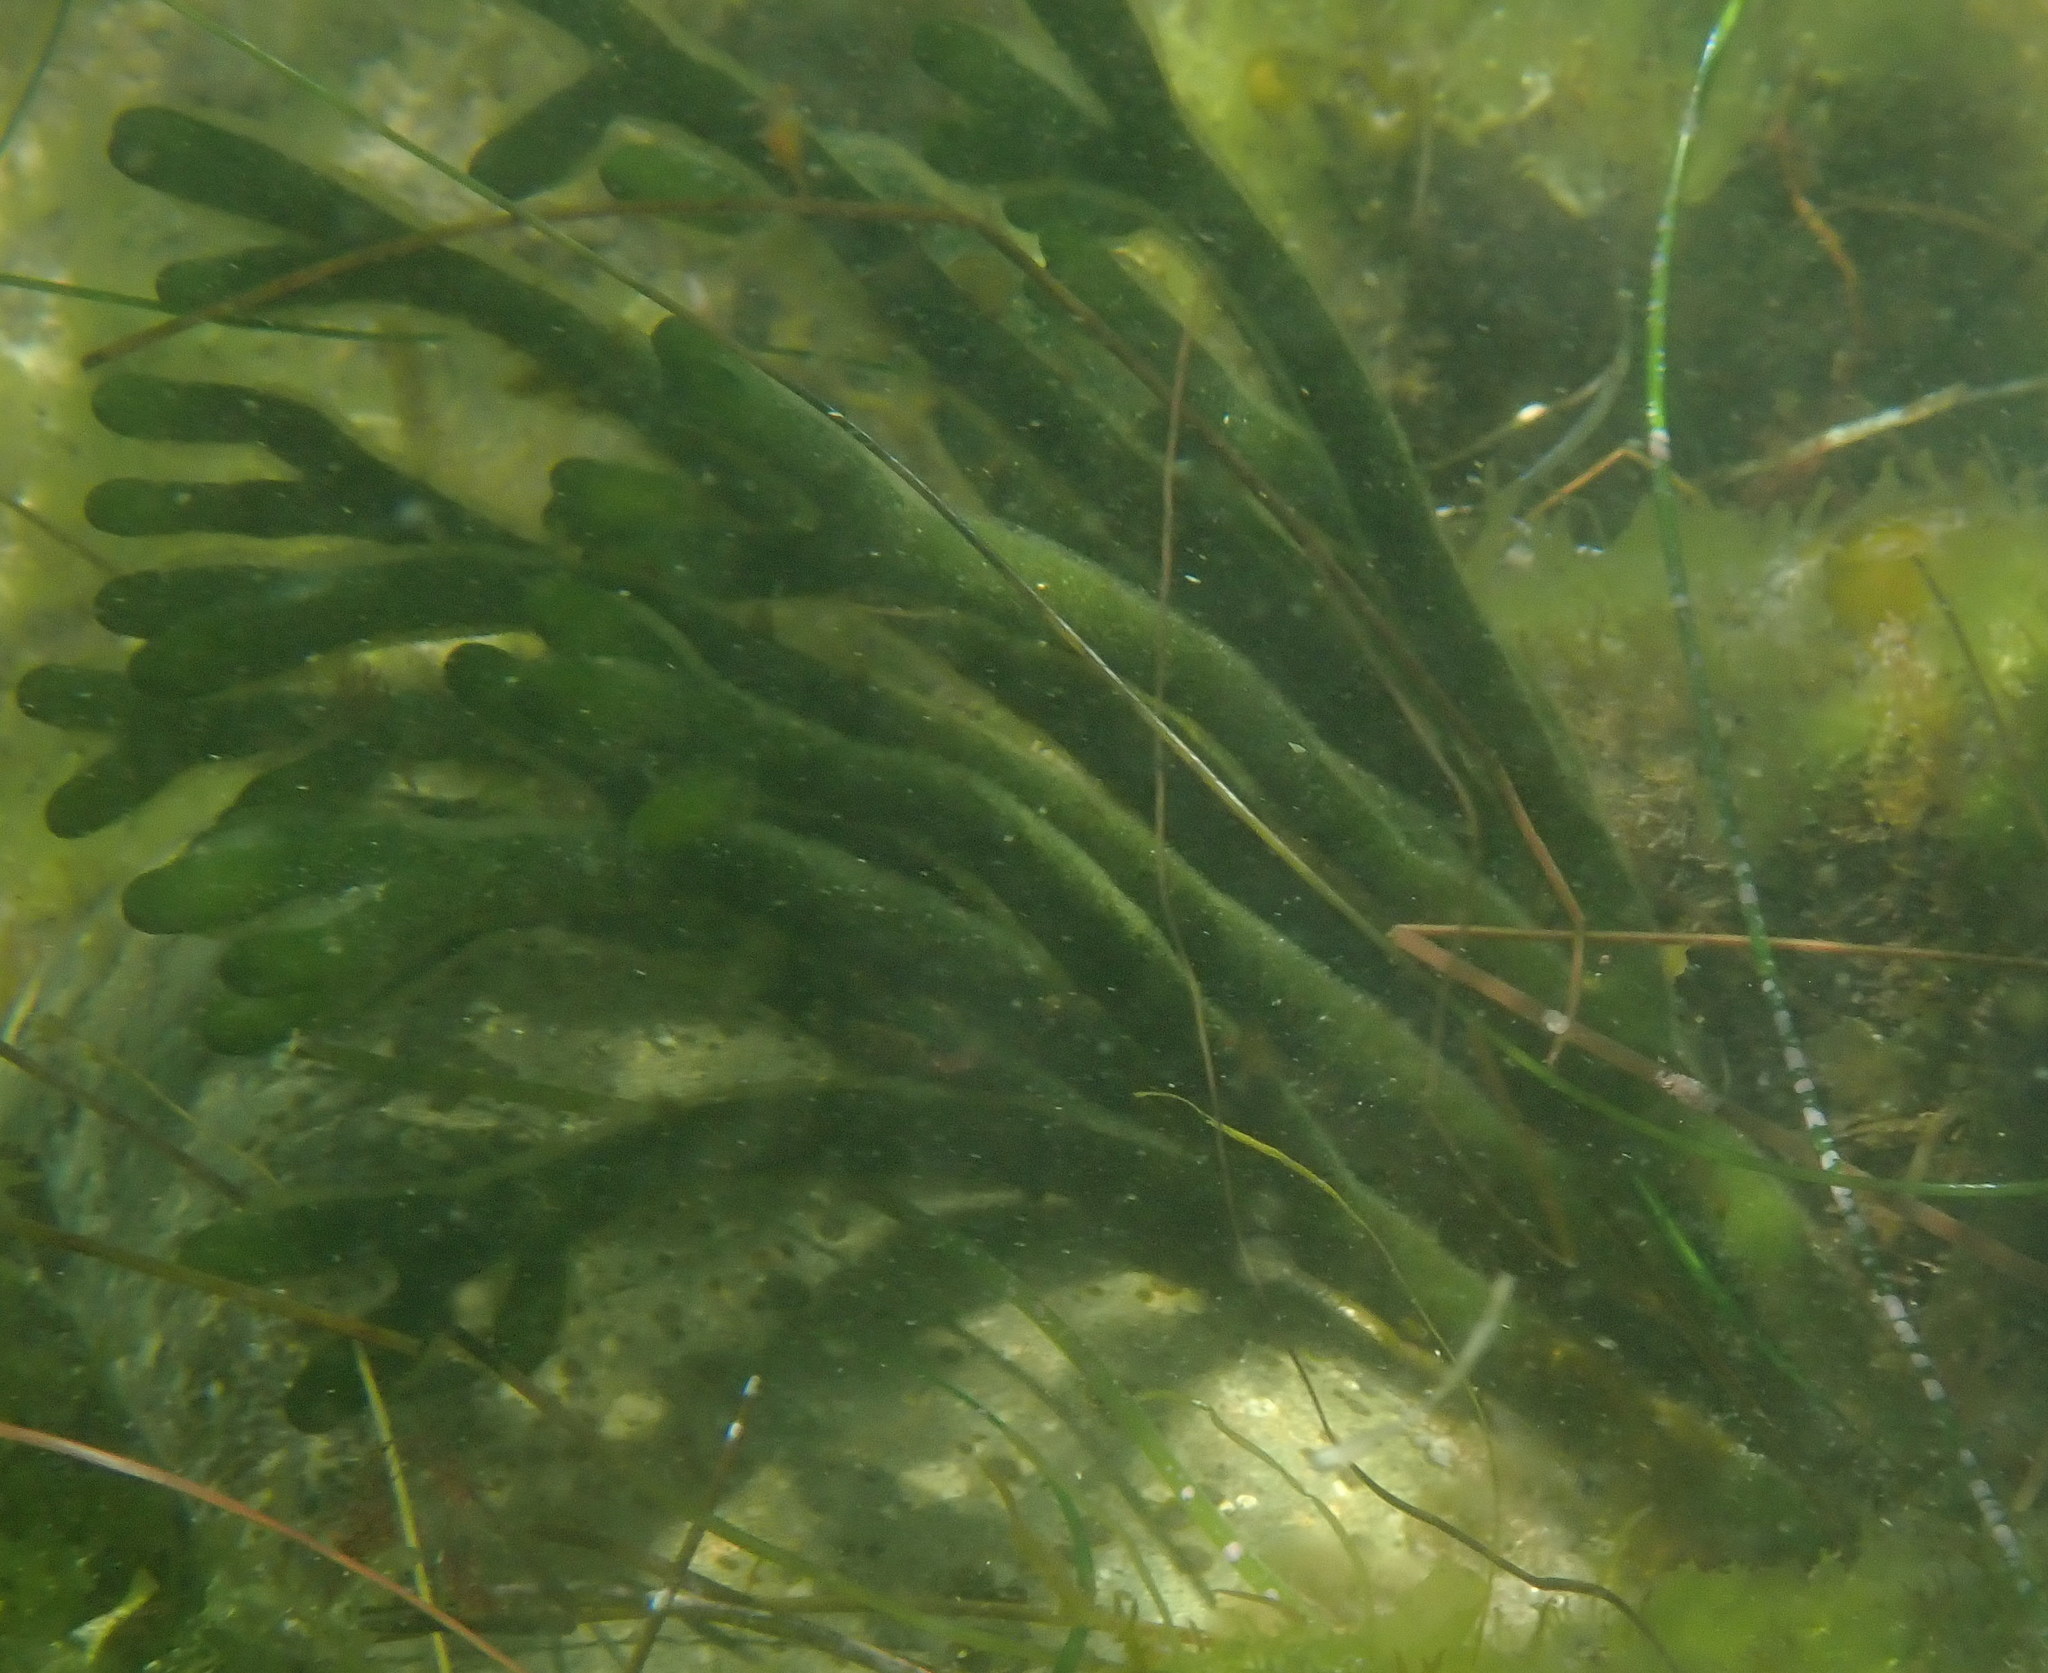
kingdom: Plantae
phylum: Chlorophyta
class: Ulvophyceae
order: Bryopsidales
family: Codiaceae
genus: Codium
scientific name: Codium fragile
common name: Dead man's fingers
